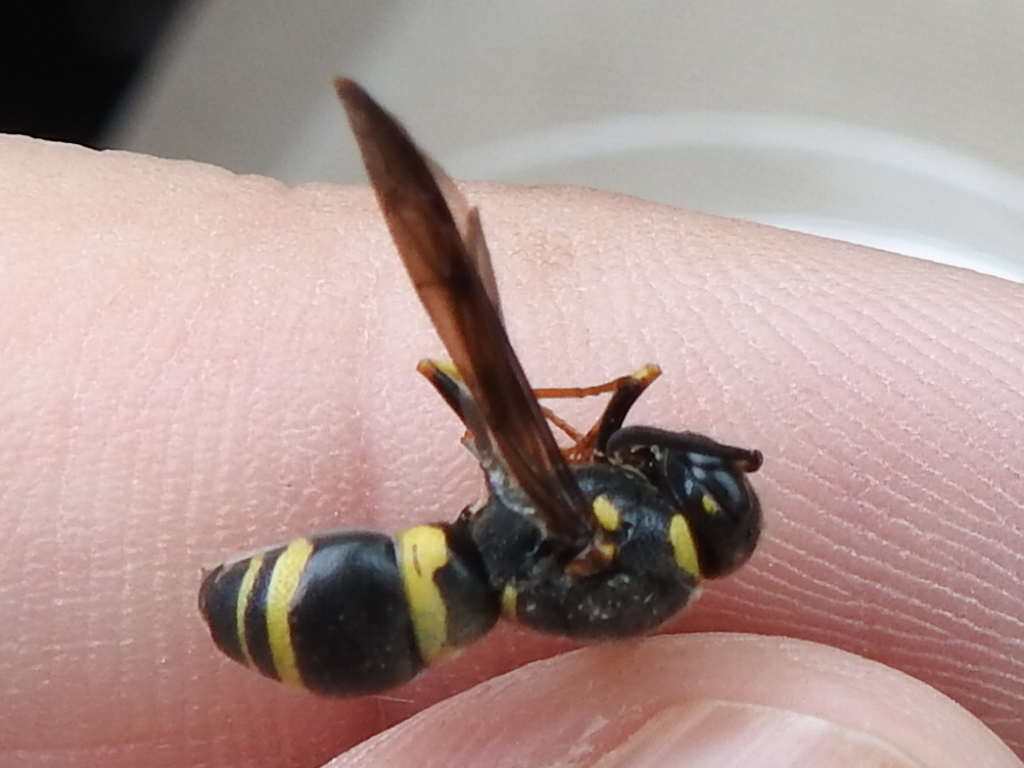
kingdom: Animalia
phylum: Arthropoda
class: Insecta
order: Hymenoptera
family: Eumenidae
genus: Euodynerus
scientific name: Euodynerus foraminatus
